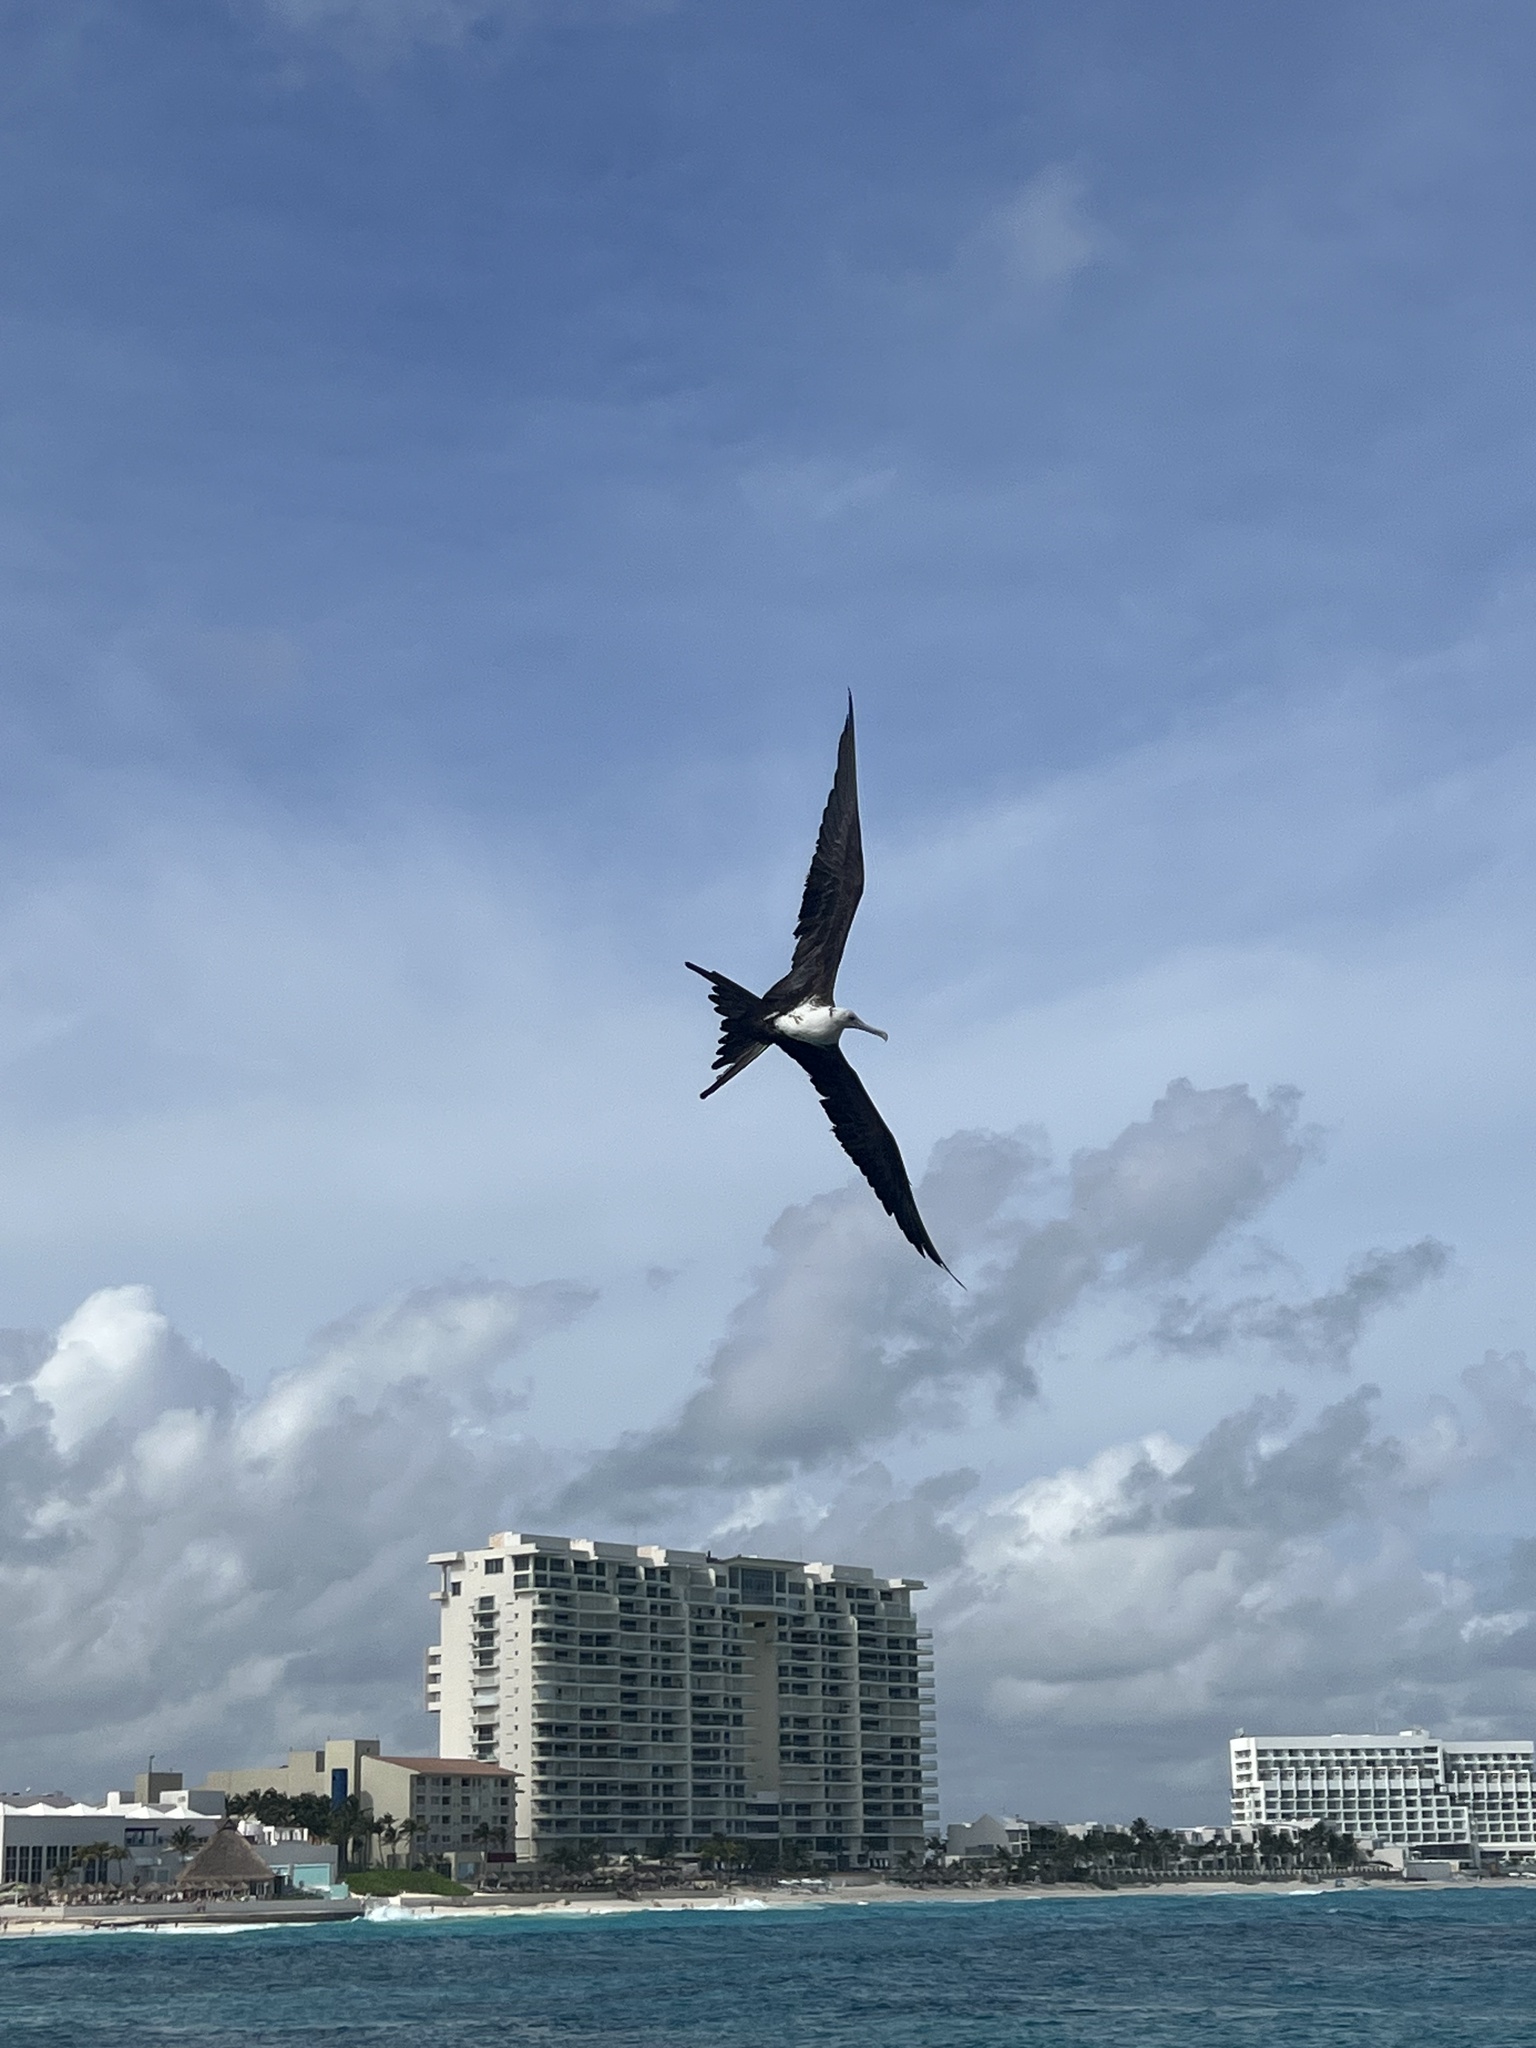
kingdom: Animalia
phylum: Chordata
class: Aves
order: Suliformes
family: Fregatidae
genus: Fregata
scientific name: Fregata magnificens
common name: Magnificent frigatebird
